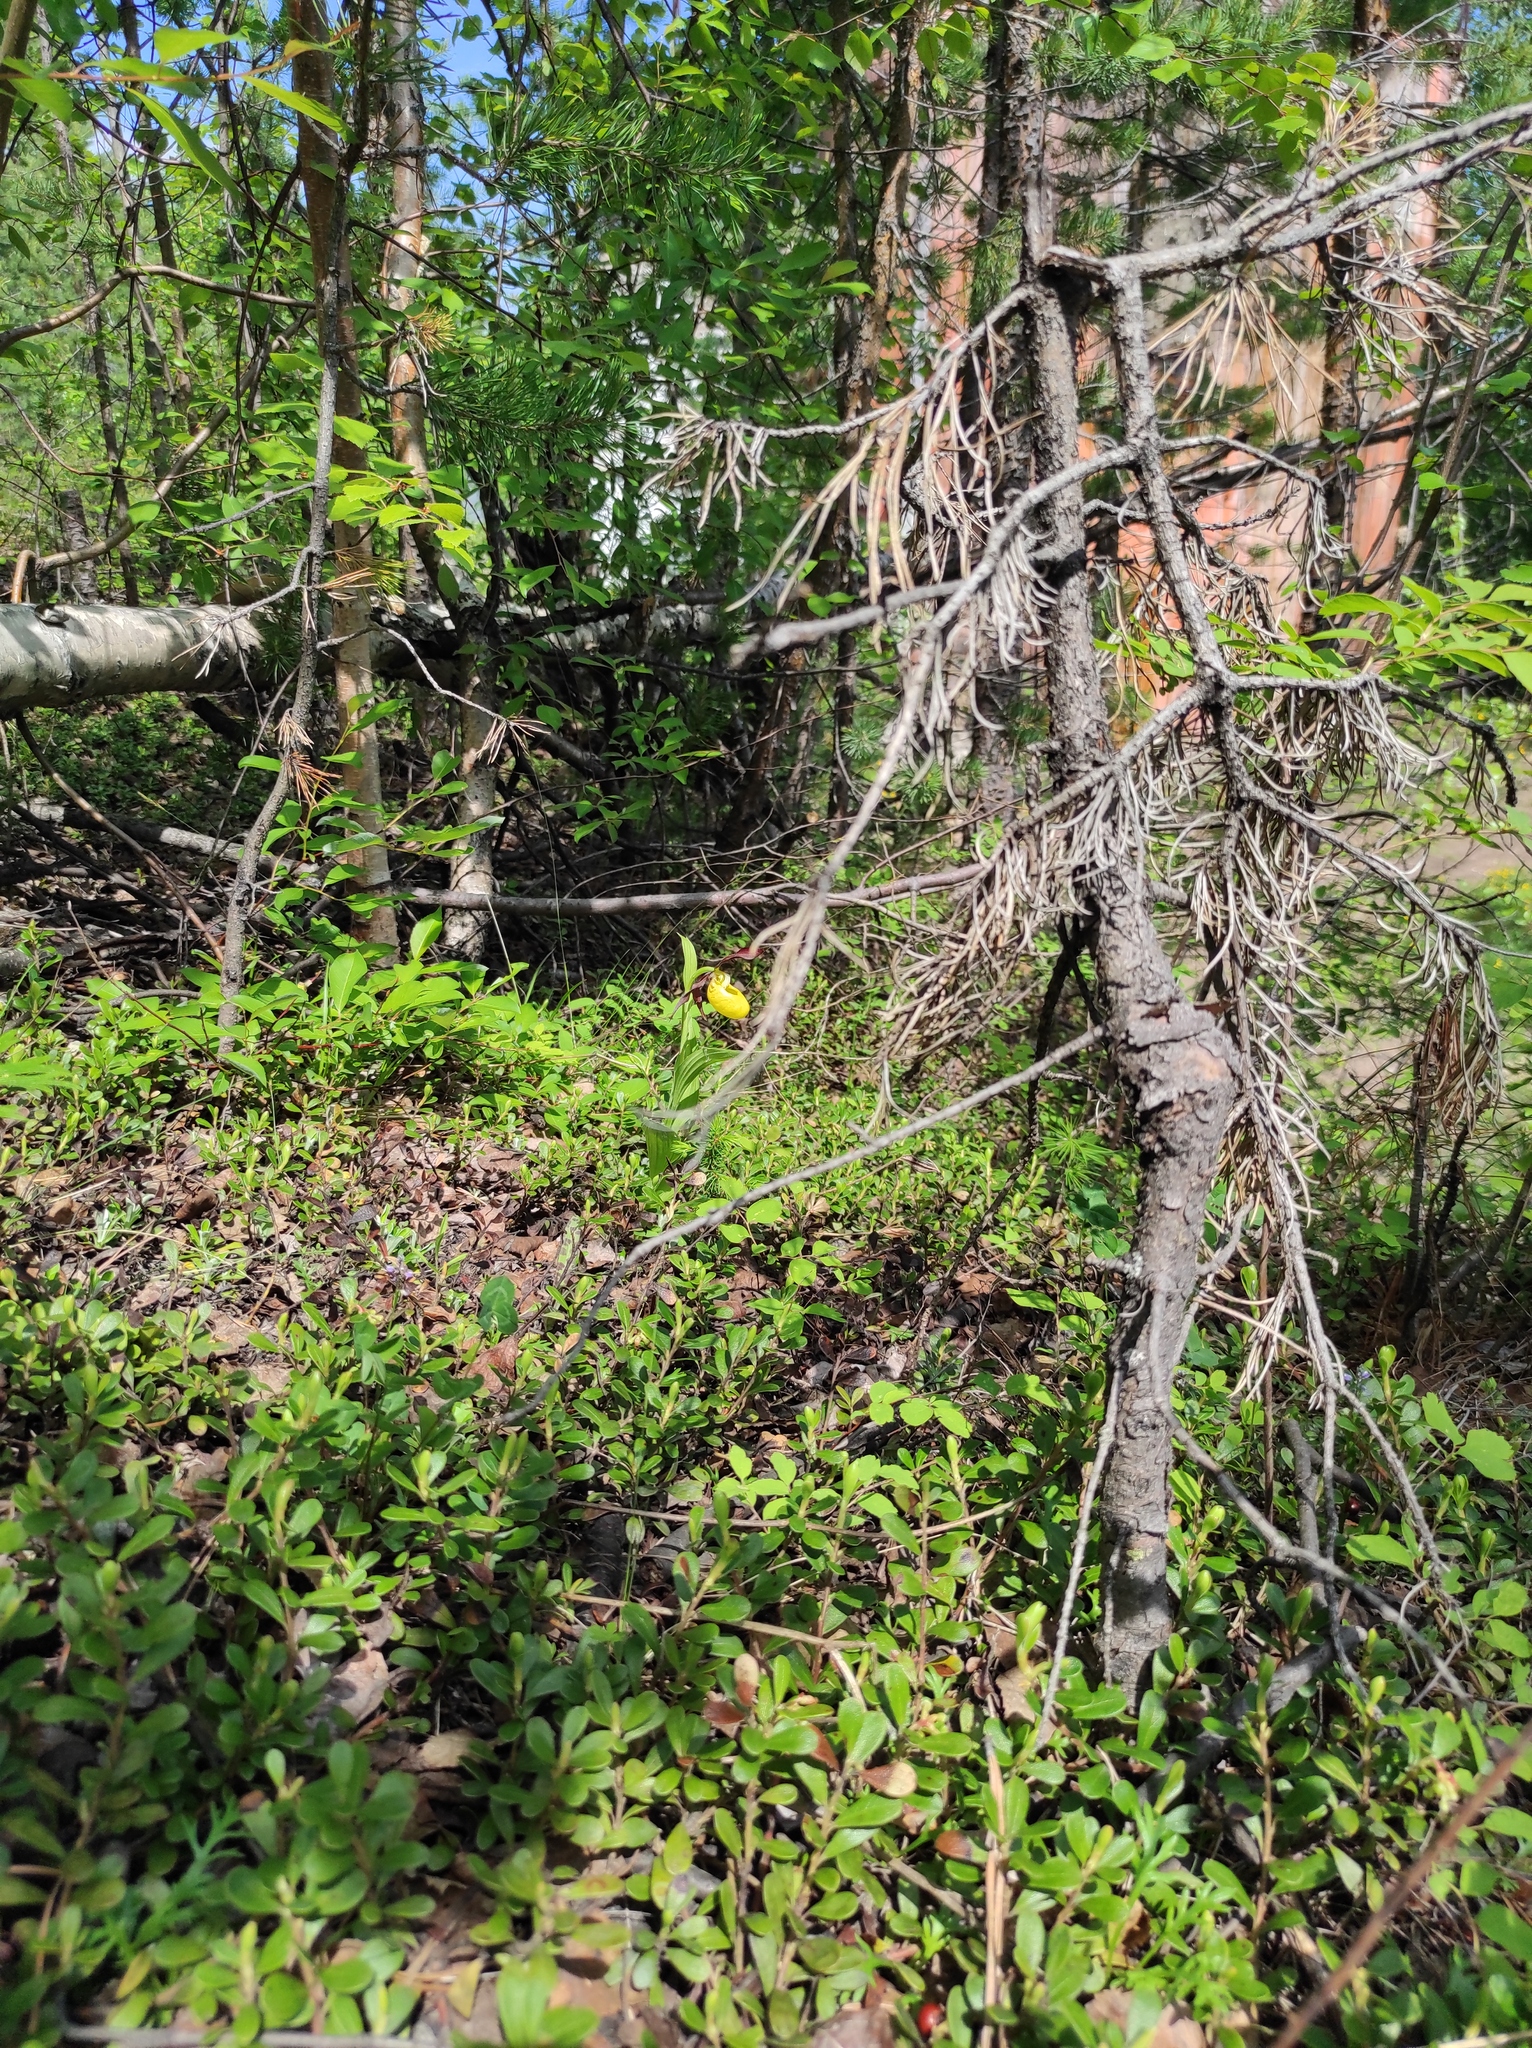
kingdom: Plantae
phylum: Tracheophyta
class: Magnoliopsida
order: Ericales
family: Ericaceae
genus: Vaccinium
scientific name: Vaccinium vitis-idaea
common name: Cowberry
